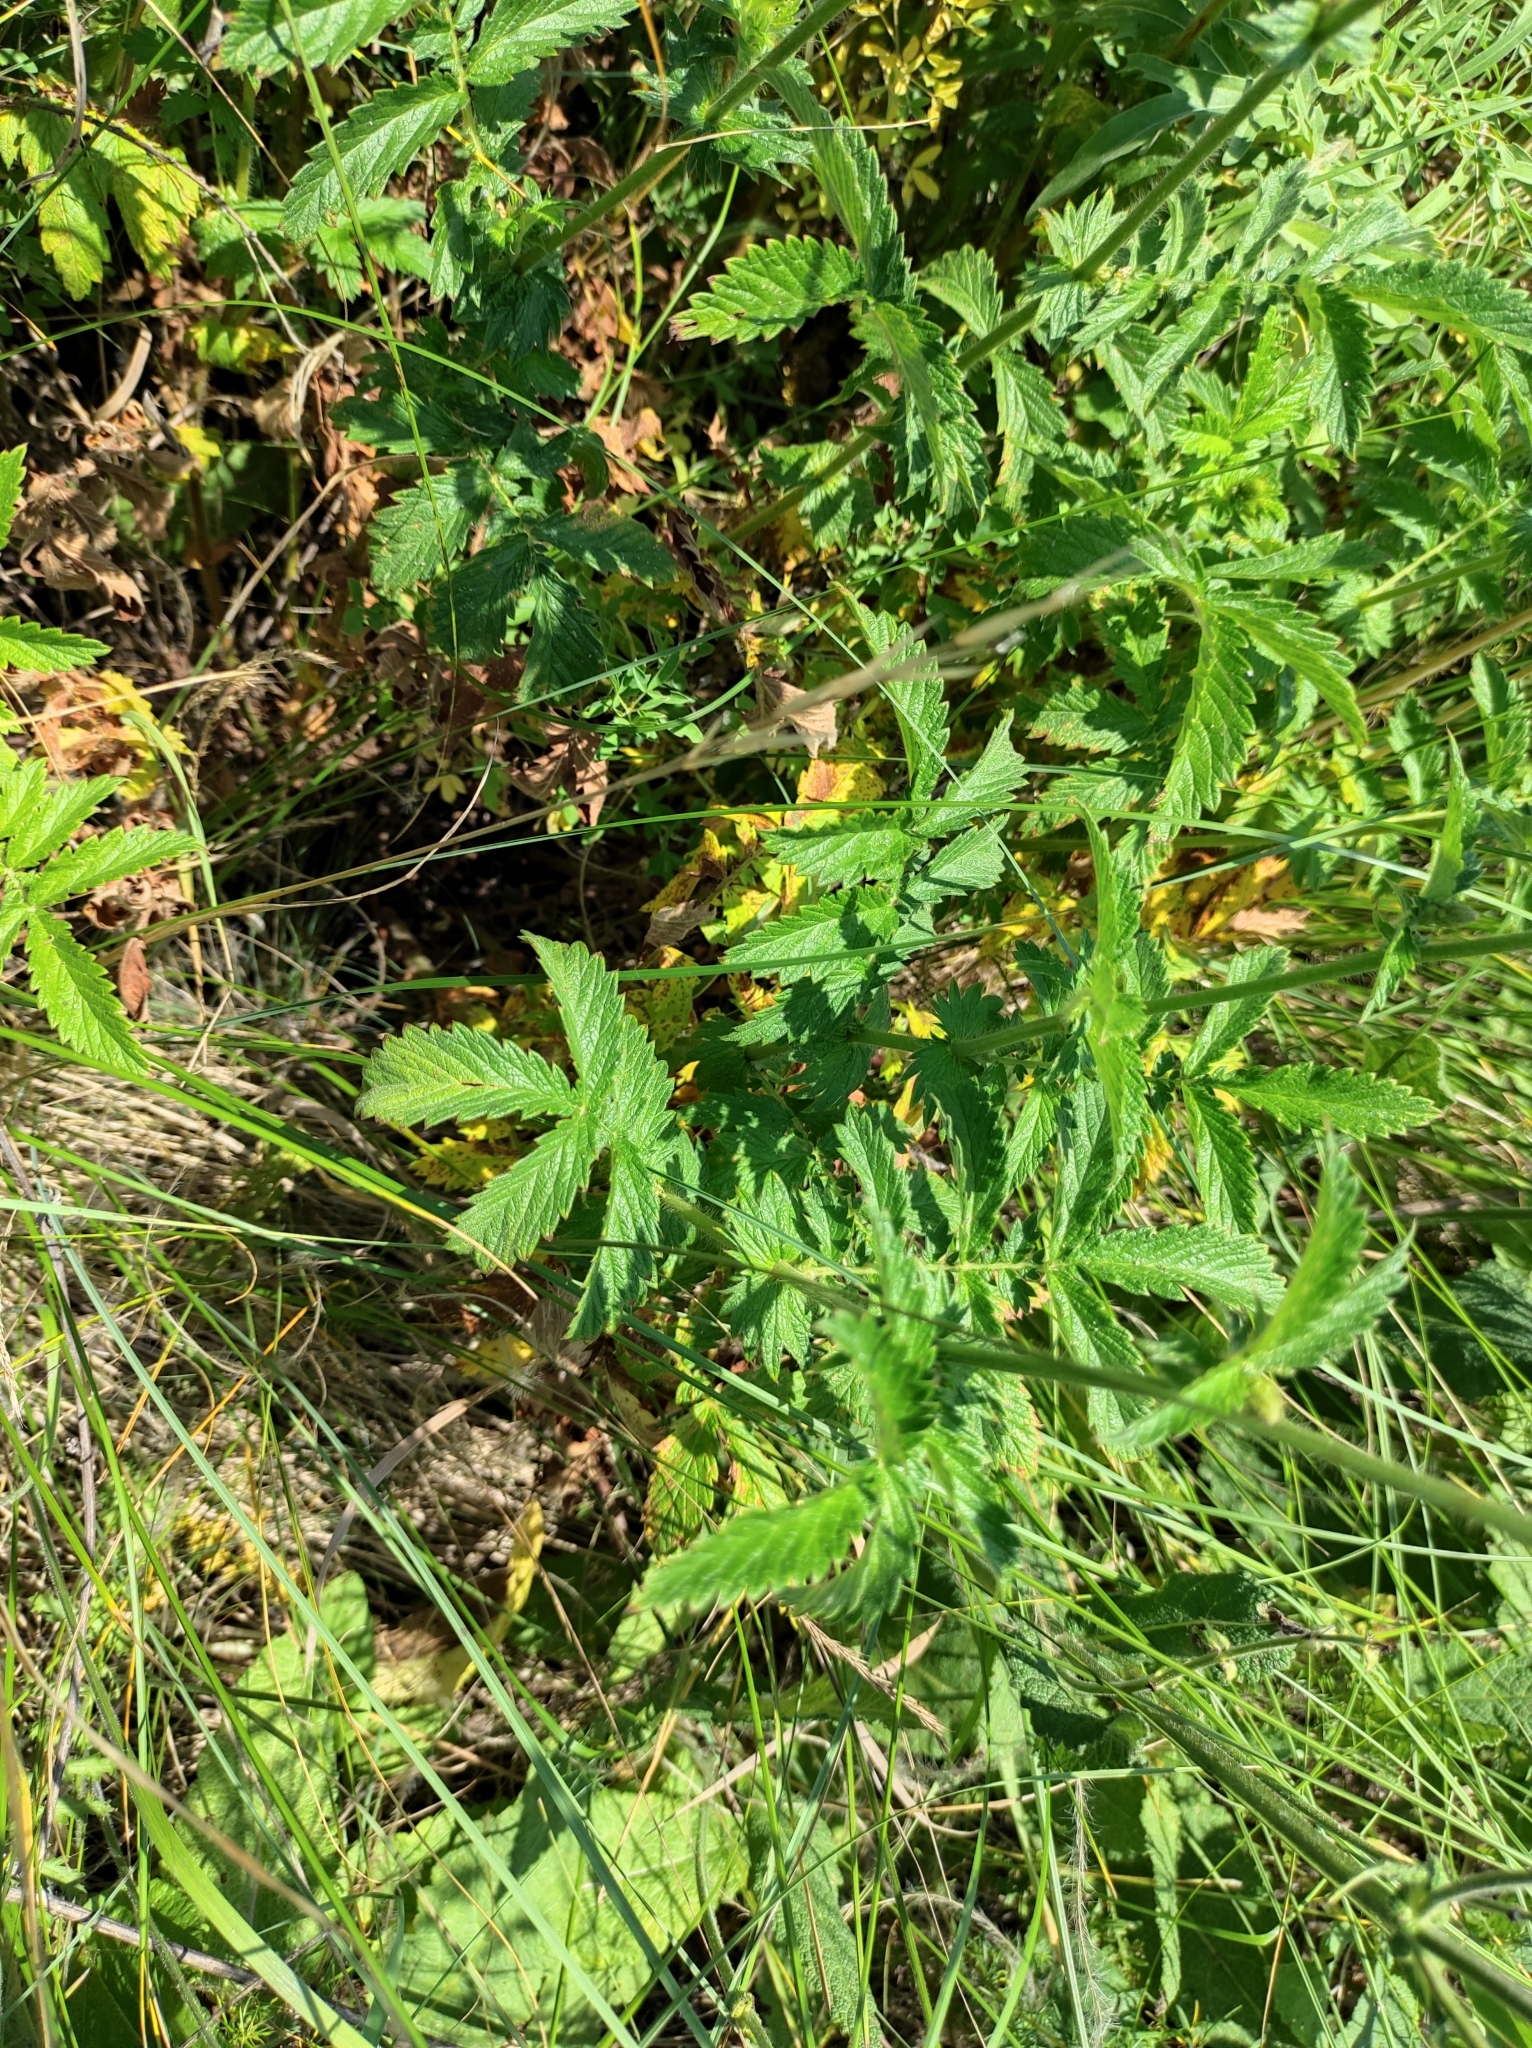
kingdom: Plantae
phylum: Tracheophyta
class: Magnoliopsida
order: Rosales
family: Rosaceae
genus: Agrimonia
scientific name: Agrimonia eupatoria
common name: Agrimony
